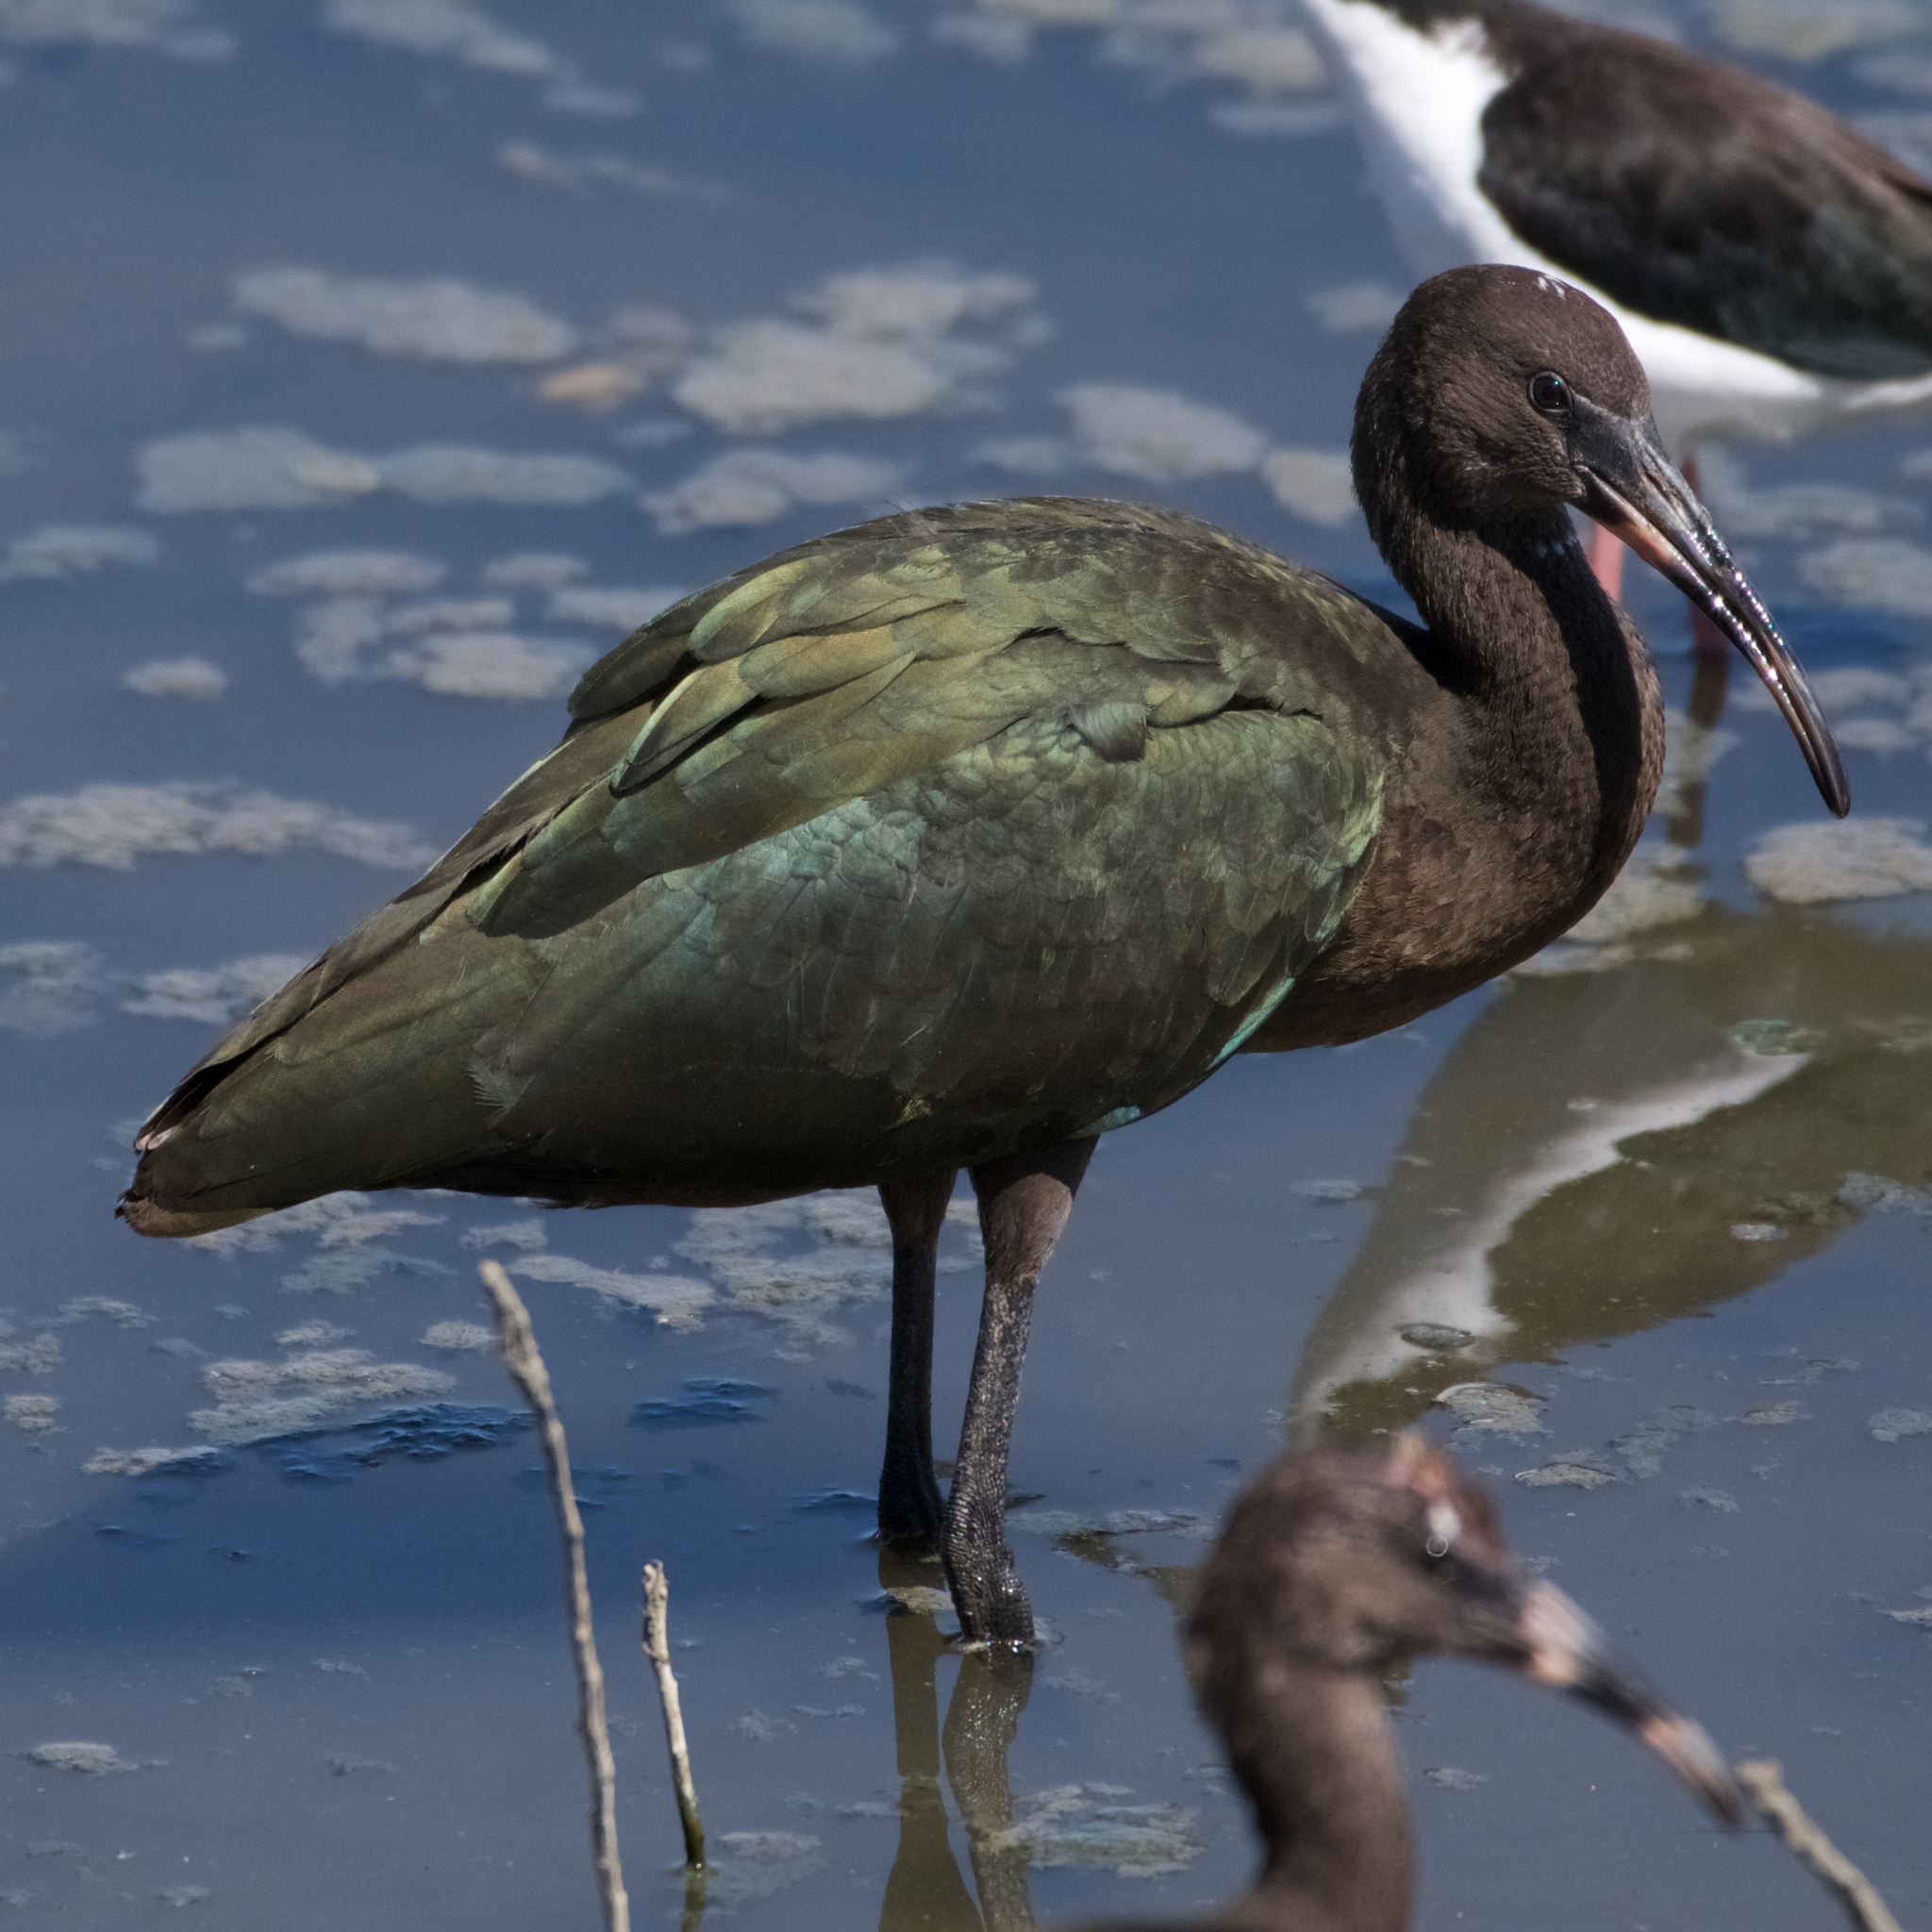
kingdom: Animalia
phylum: Chordata
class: Aves
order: Pelecaniformes
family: Threskiornithidae
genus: Plegadis
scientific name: Plegadis chihi
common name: White-faced ibis
